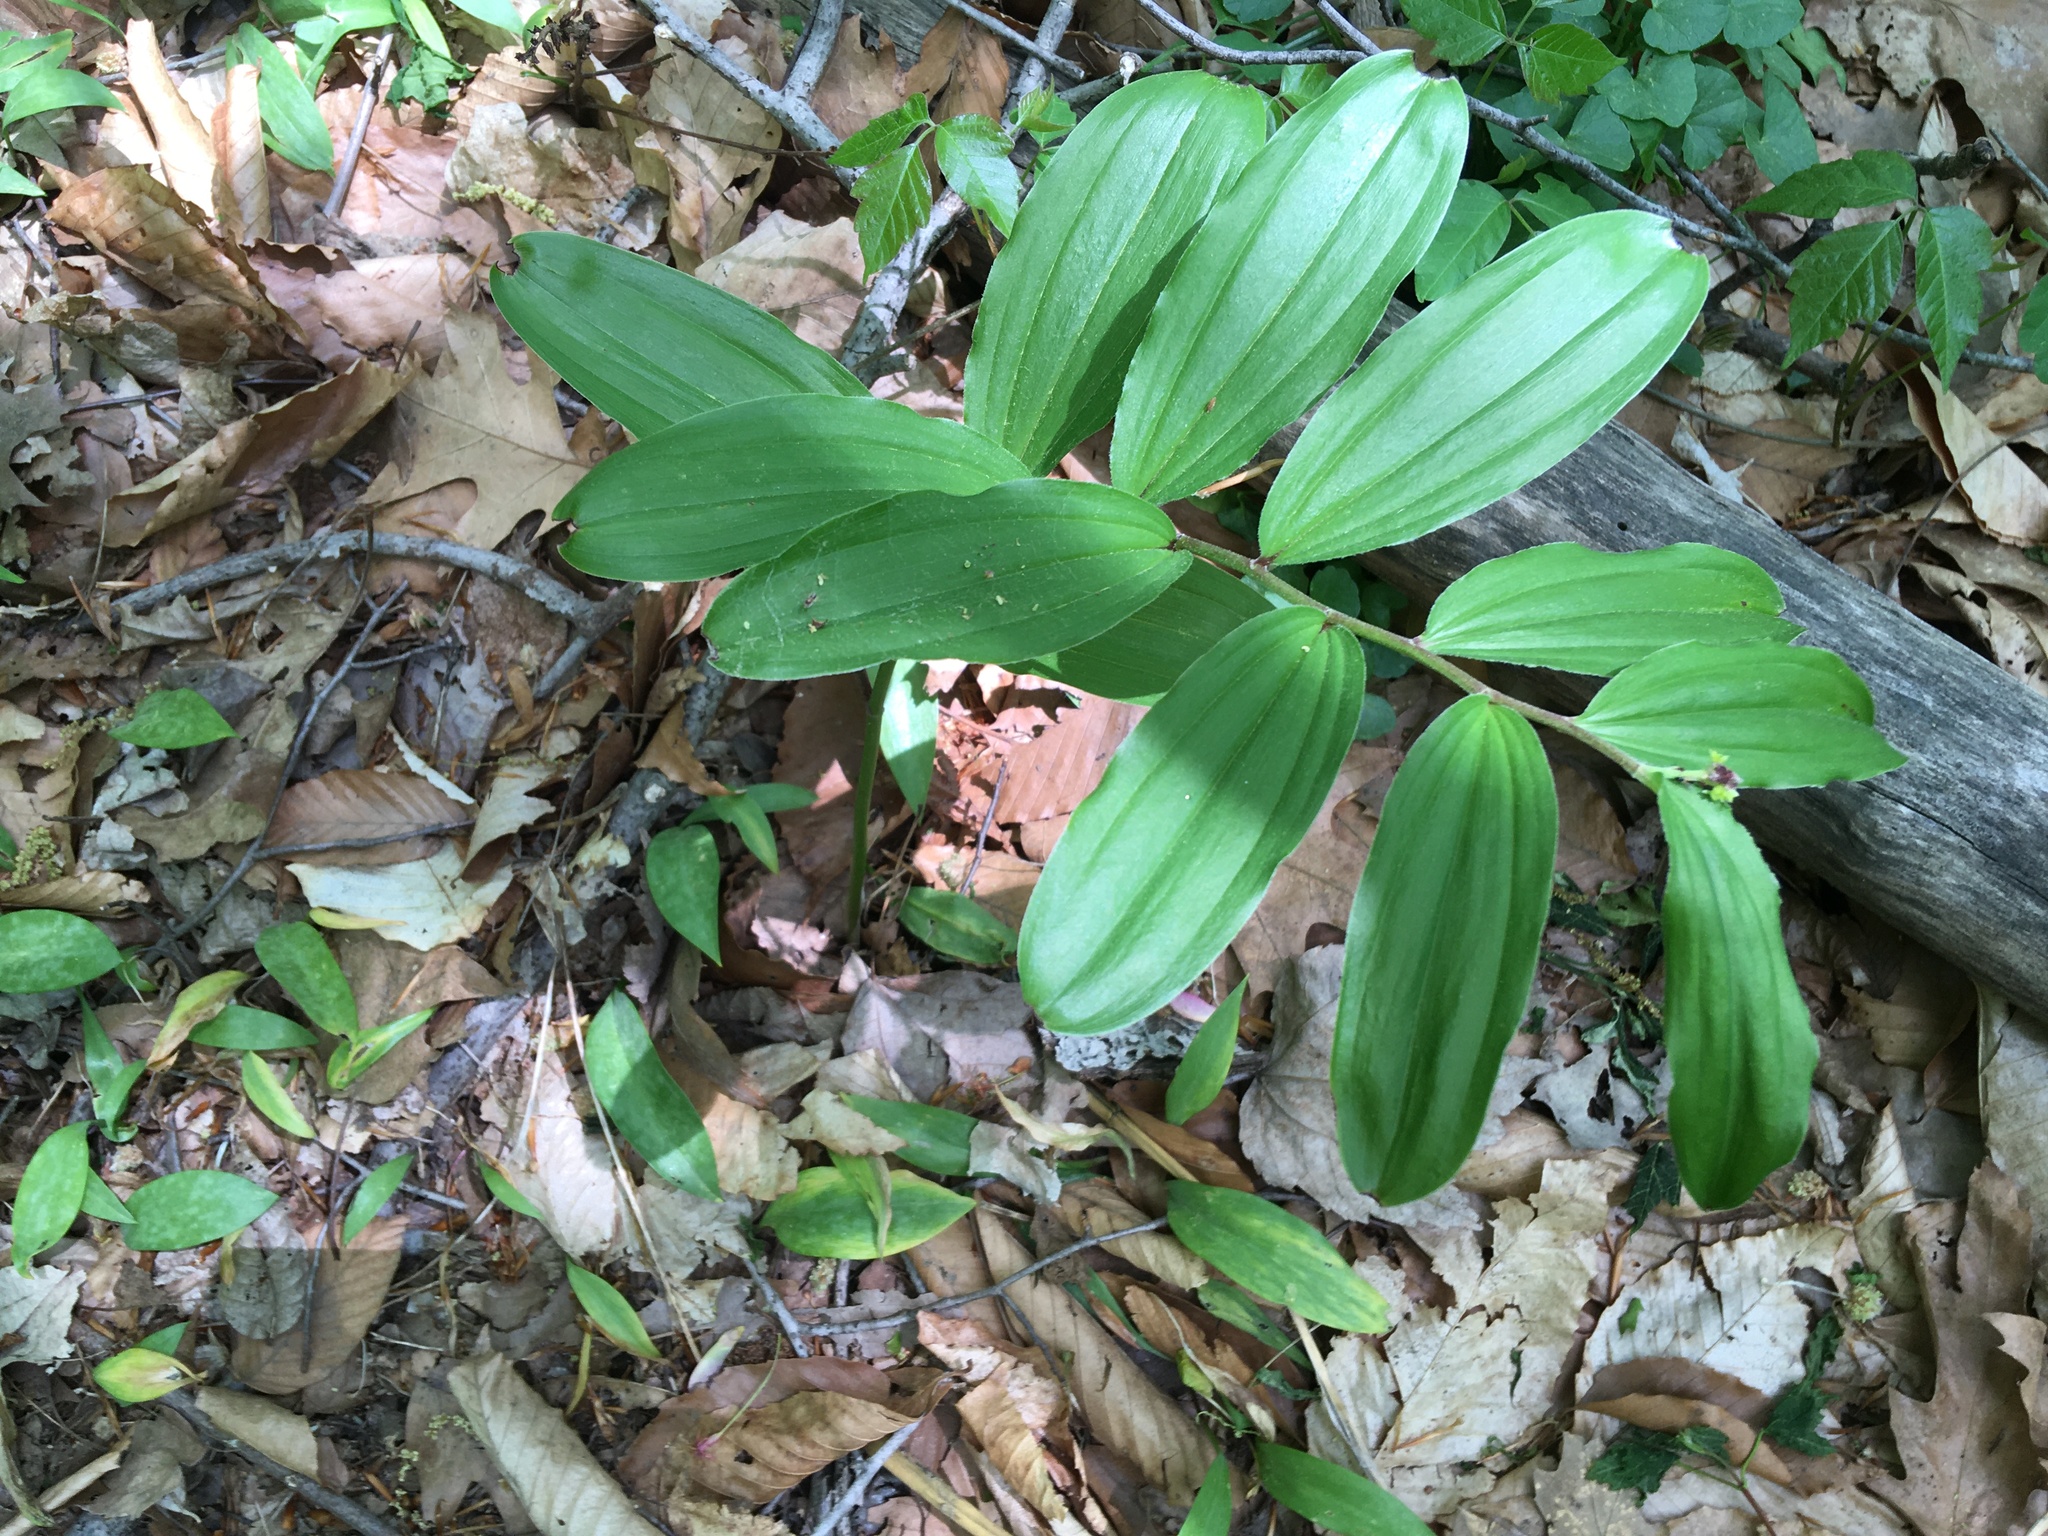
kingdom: Plantae
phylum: Tracheophyta
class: Liliopsida
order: Asparagales
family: Asparagaceae
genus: Maianthemum
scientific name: Maianthemum racemosum
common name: False spikenard
